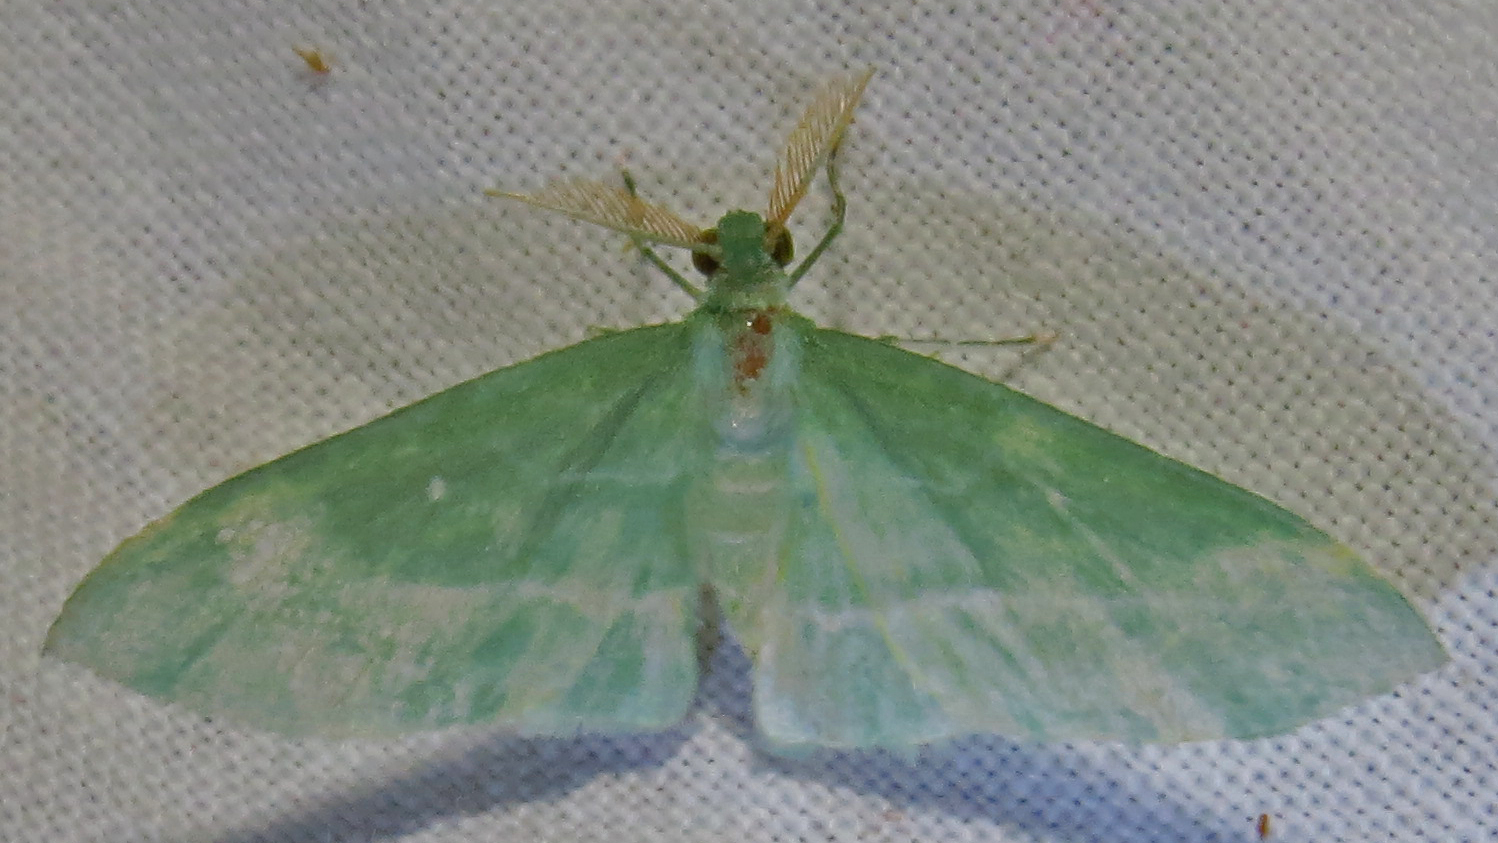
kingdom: Animalia
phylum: Arthropoda
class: Insecta
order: Lepidoptera
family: Geometridae
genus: Dyspteris
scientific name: Dyspteris abortivaria
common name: Bad-wing
